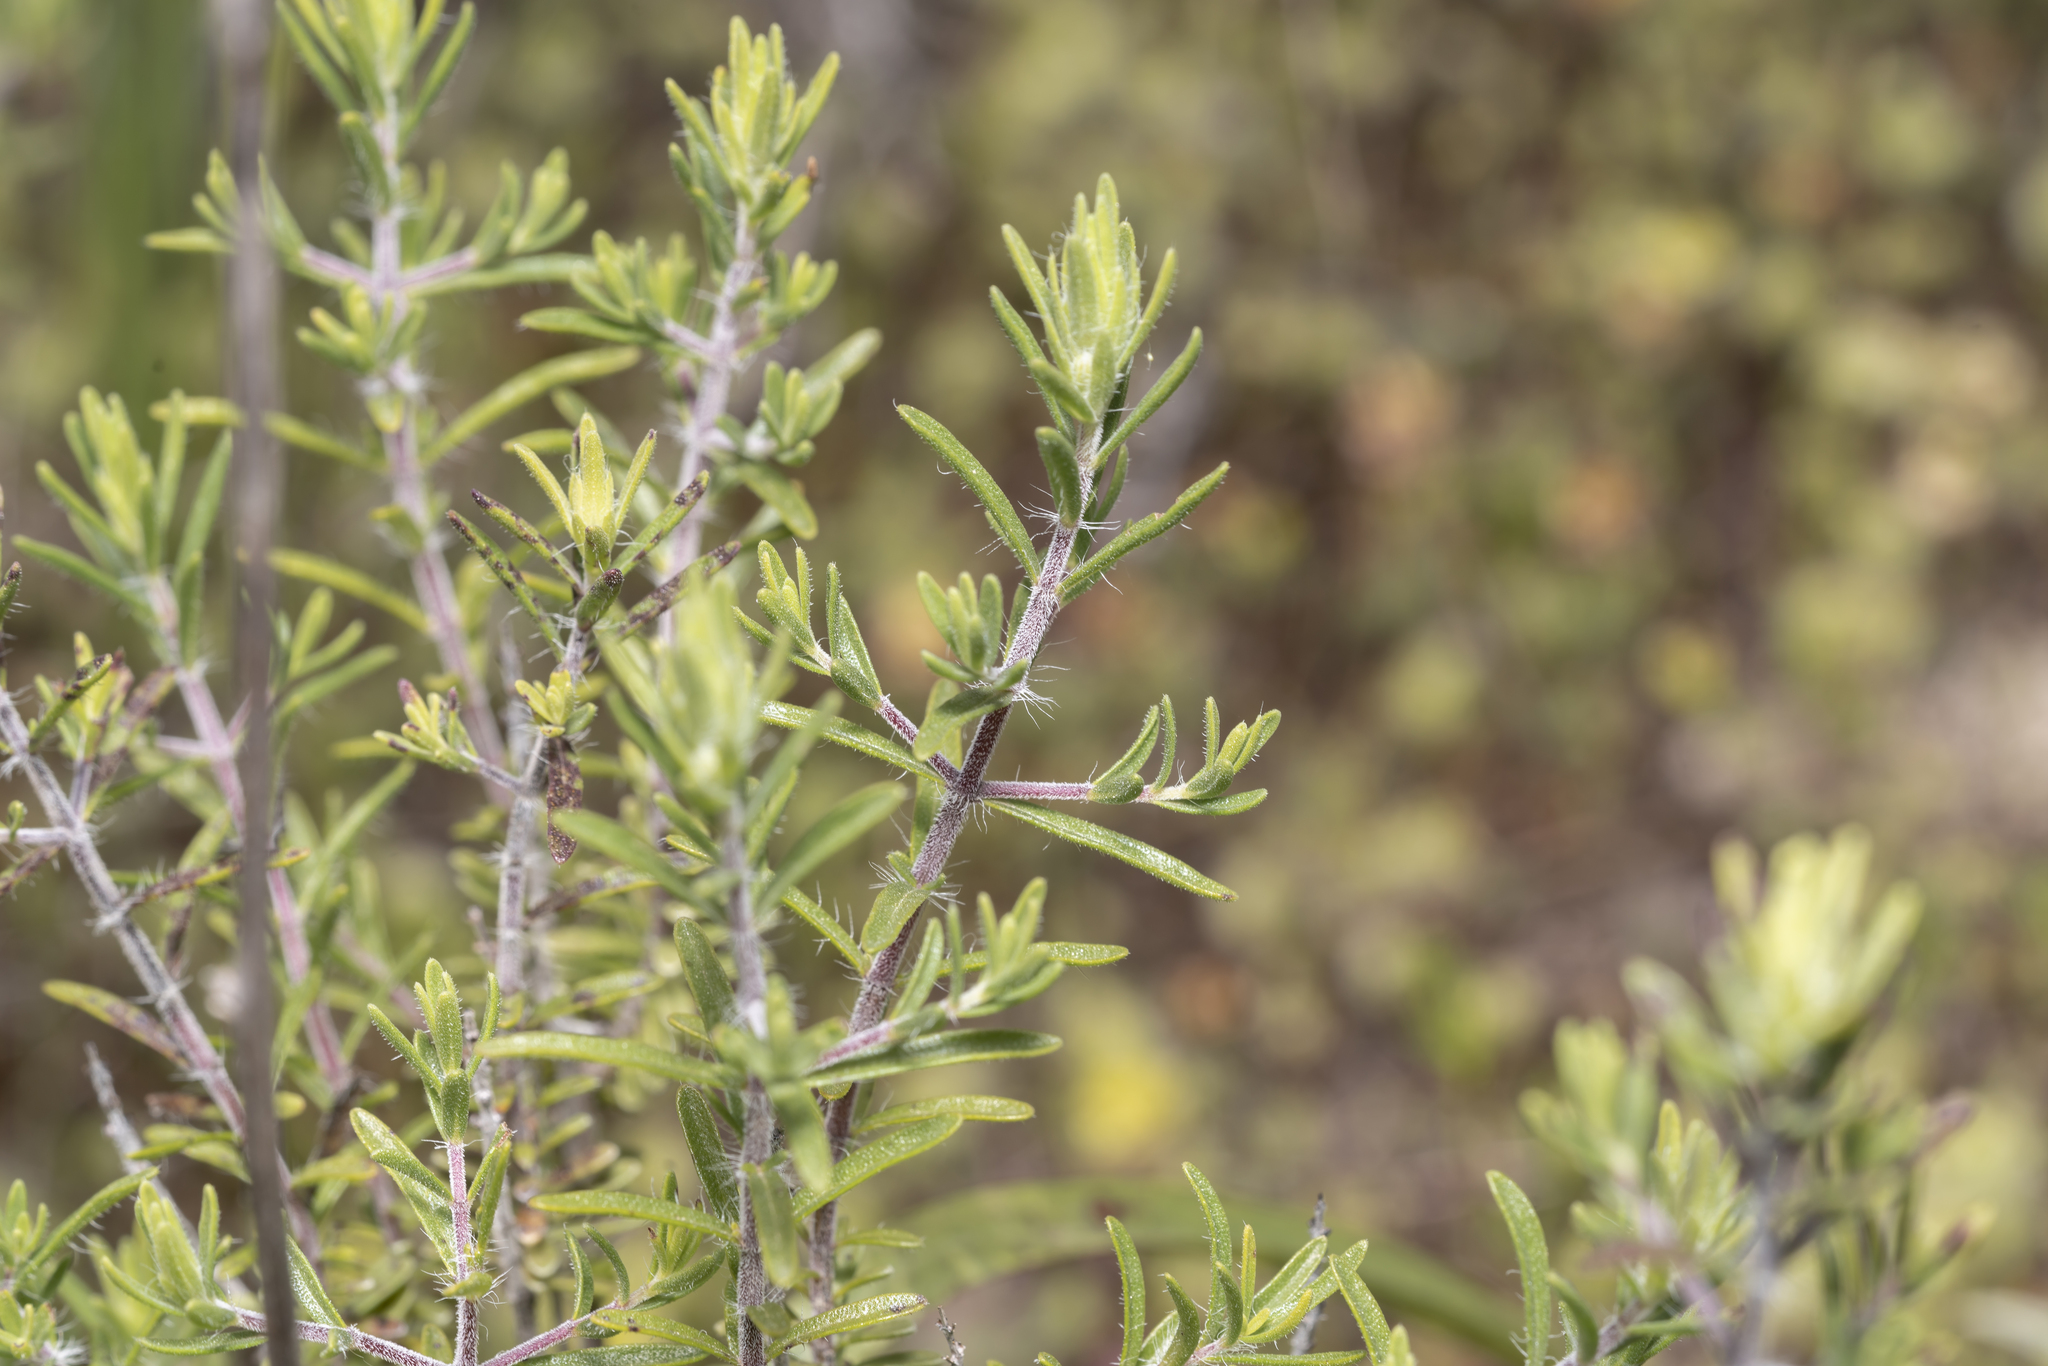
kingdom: Plantae
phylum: Tracheophyta
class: Magnoliopsida
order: Lamiales
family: Lamiaceae
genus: Thymbra
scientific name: Thymbra spicata
